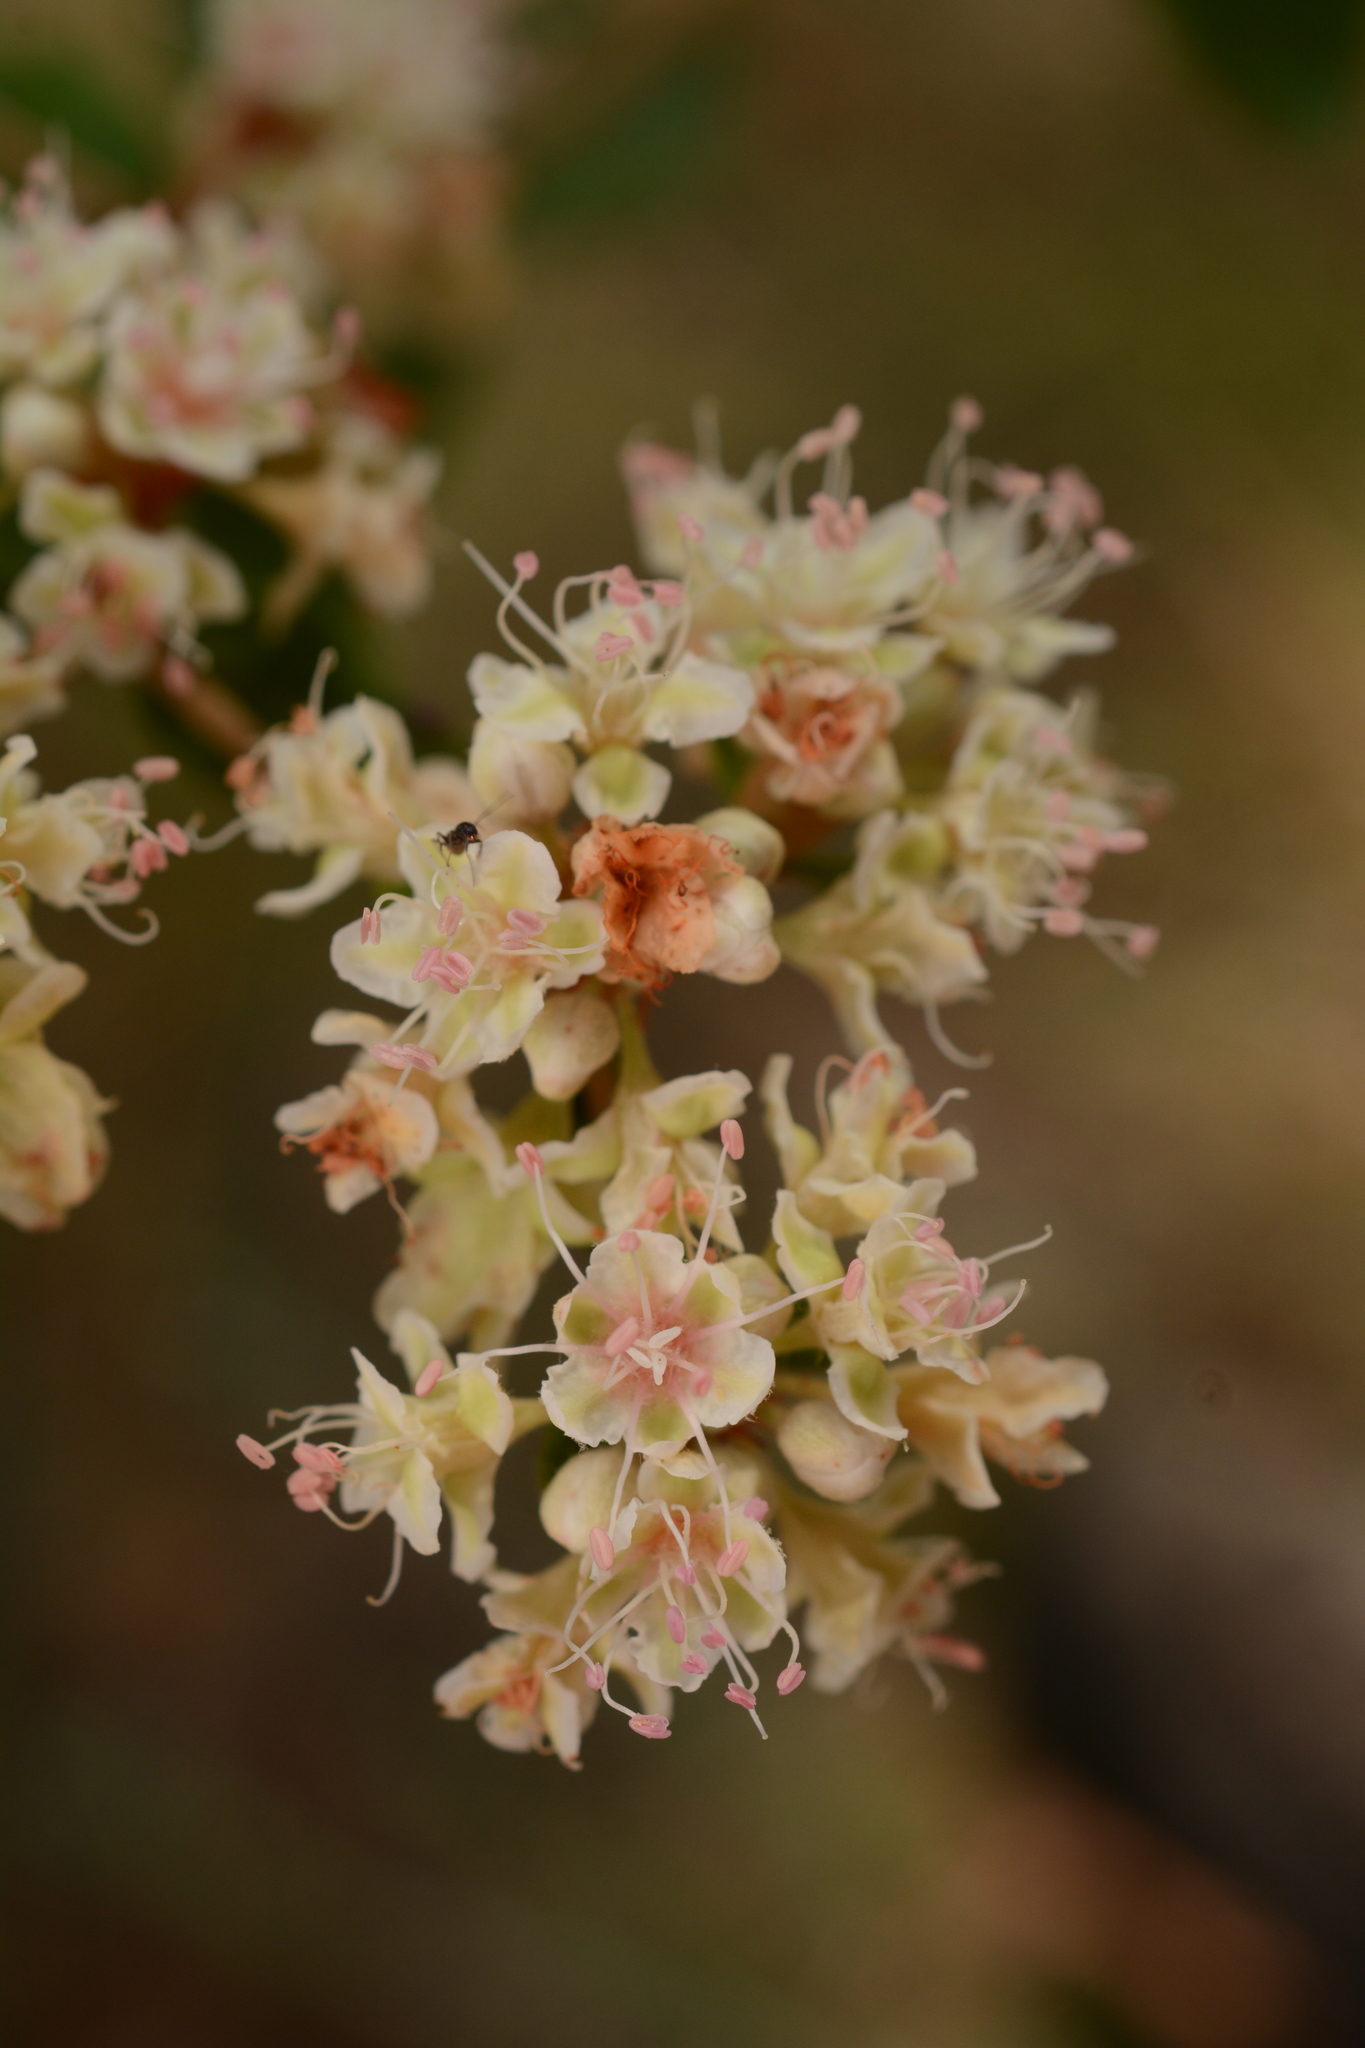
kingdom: Plantae
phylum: Tracheophyta
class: Magnoliopsida
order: Caryophyllales
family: Polygonaceae
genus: Eriogonum
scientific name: Eriogonum tomentosum
